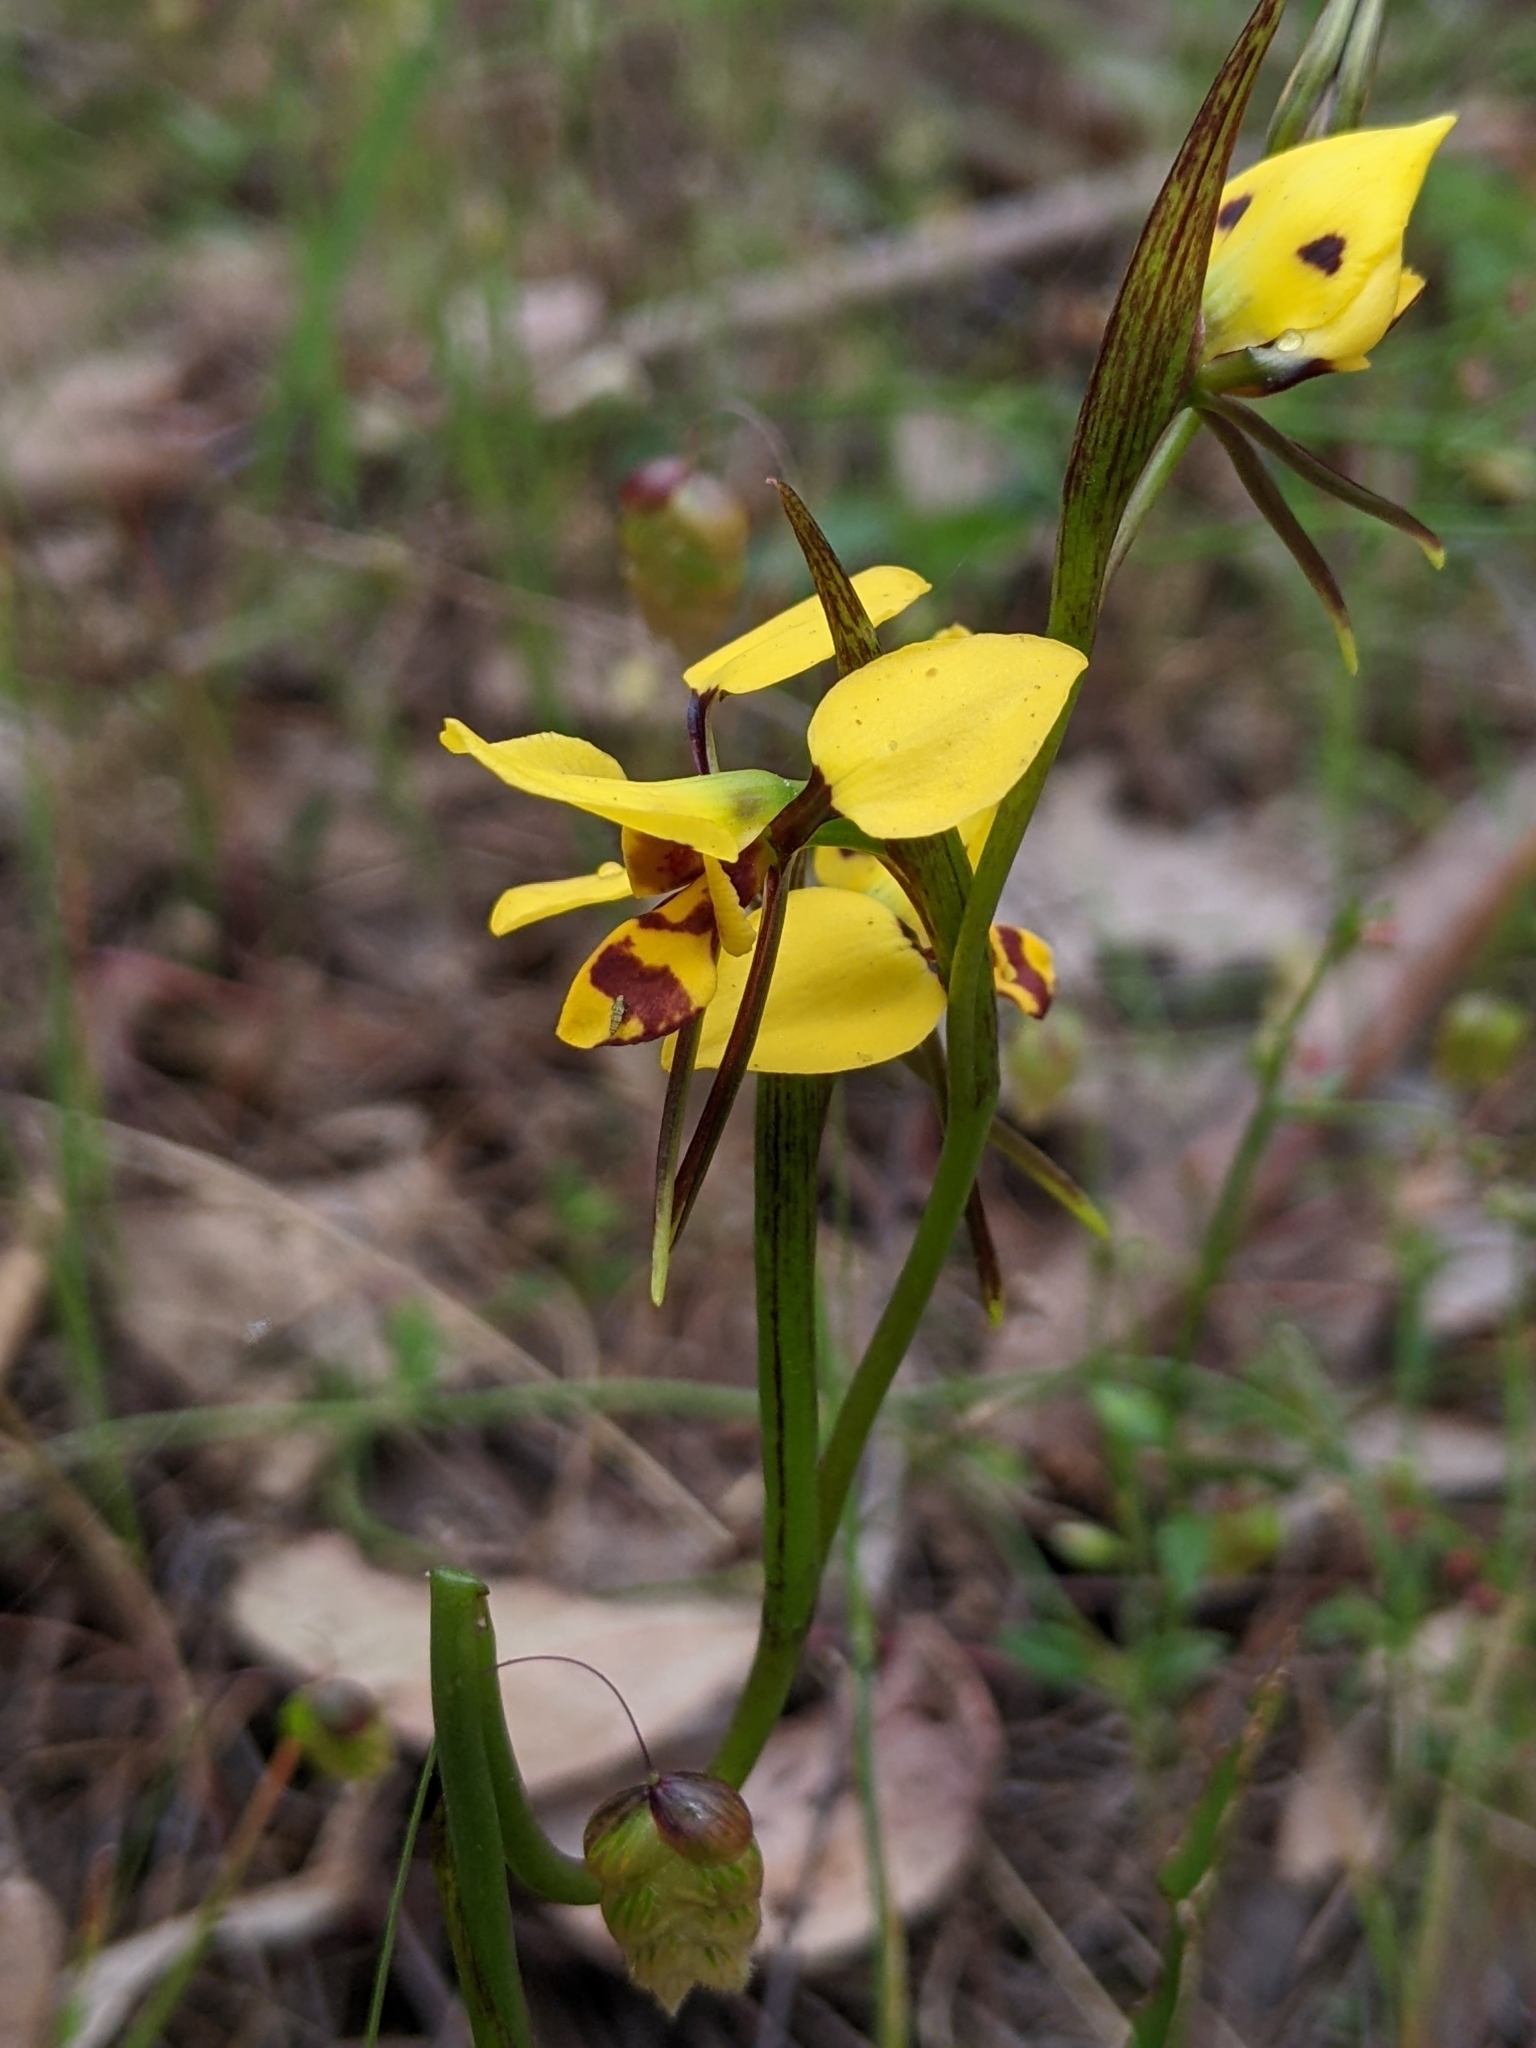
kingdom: Plantae
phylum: Tracheophyta
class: Liliopsida
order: Asparagales
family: Orchidaceae
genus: Diuris
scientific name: Diuris sulphurea
